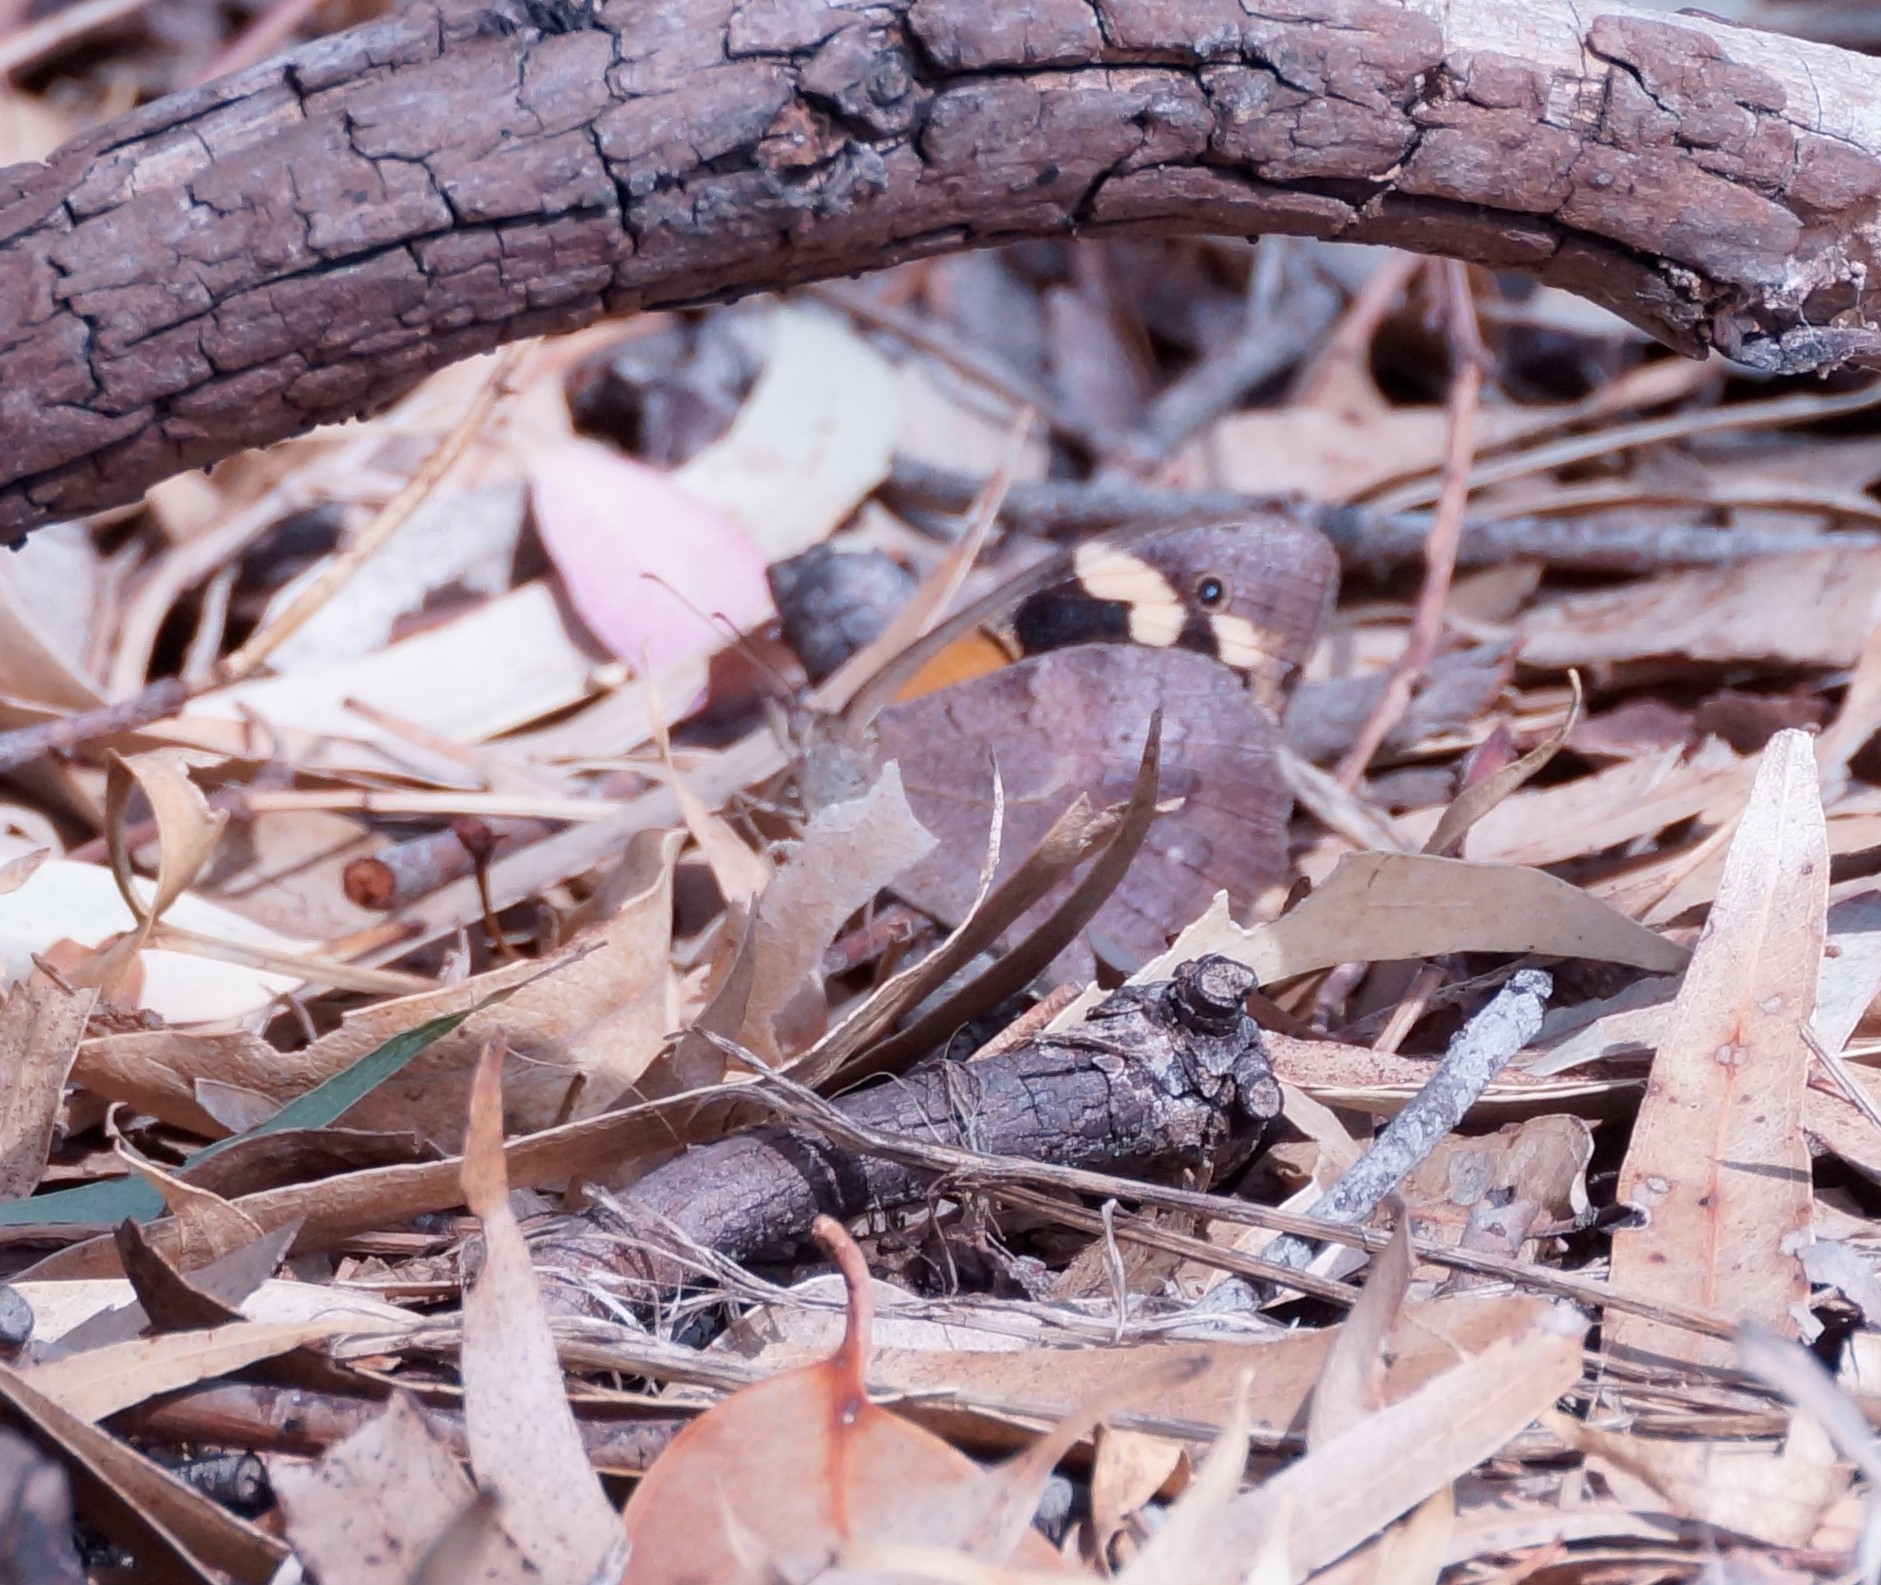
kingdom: Animalia
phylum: Arthropoda
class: Insecta
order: Lepidoptera
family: Nymphalidae
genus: Heteronympha
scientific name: Heteronympha merope
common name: Common brown
